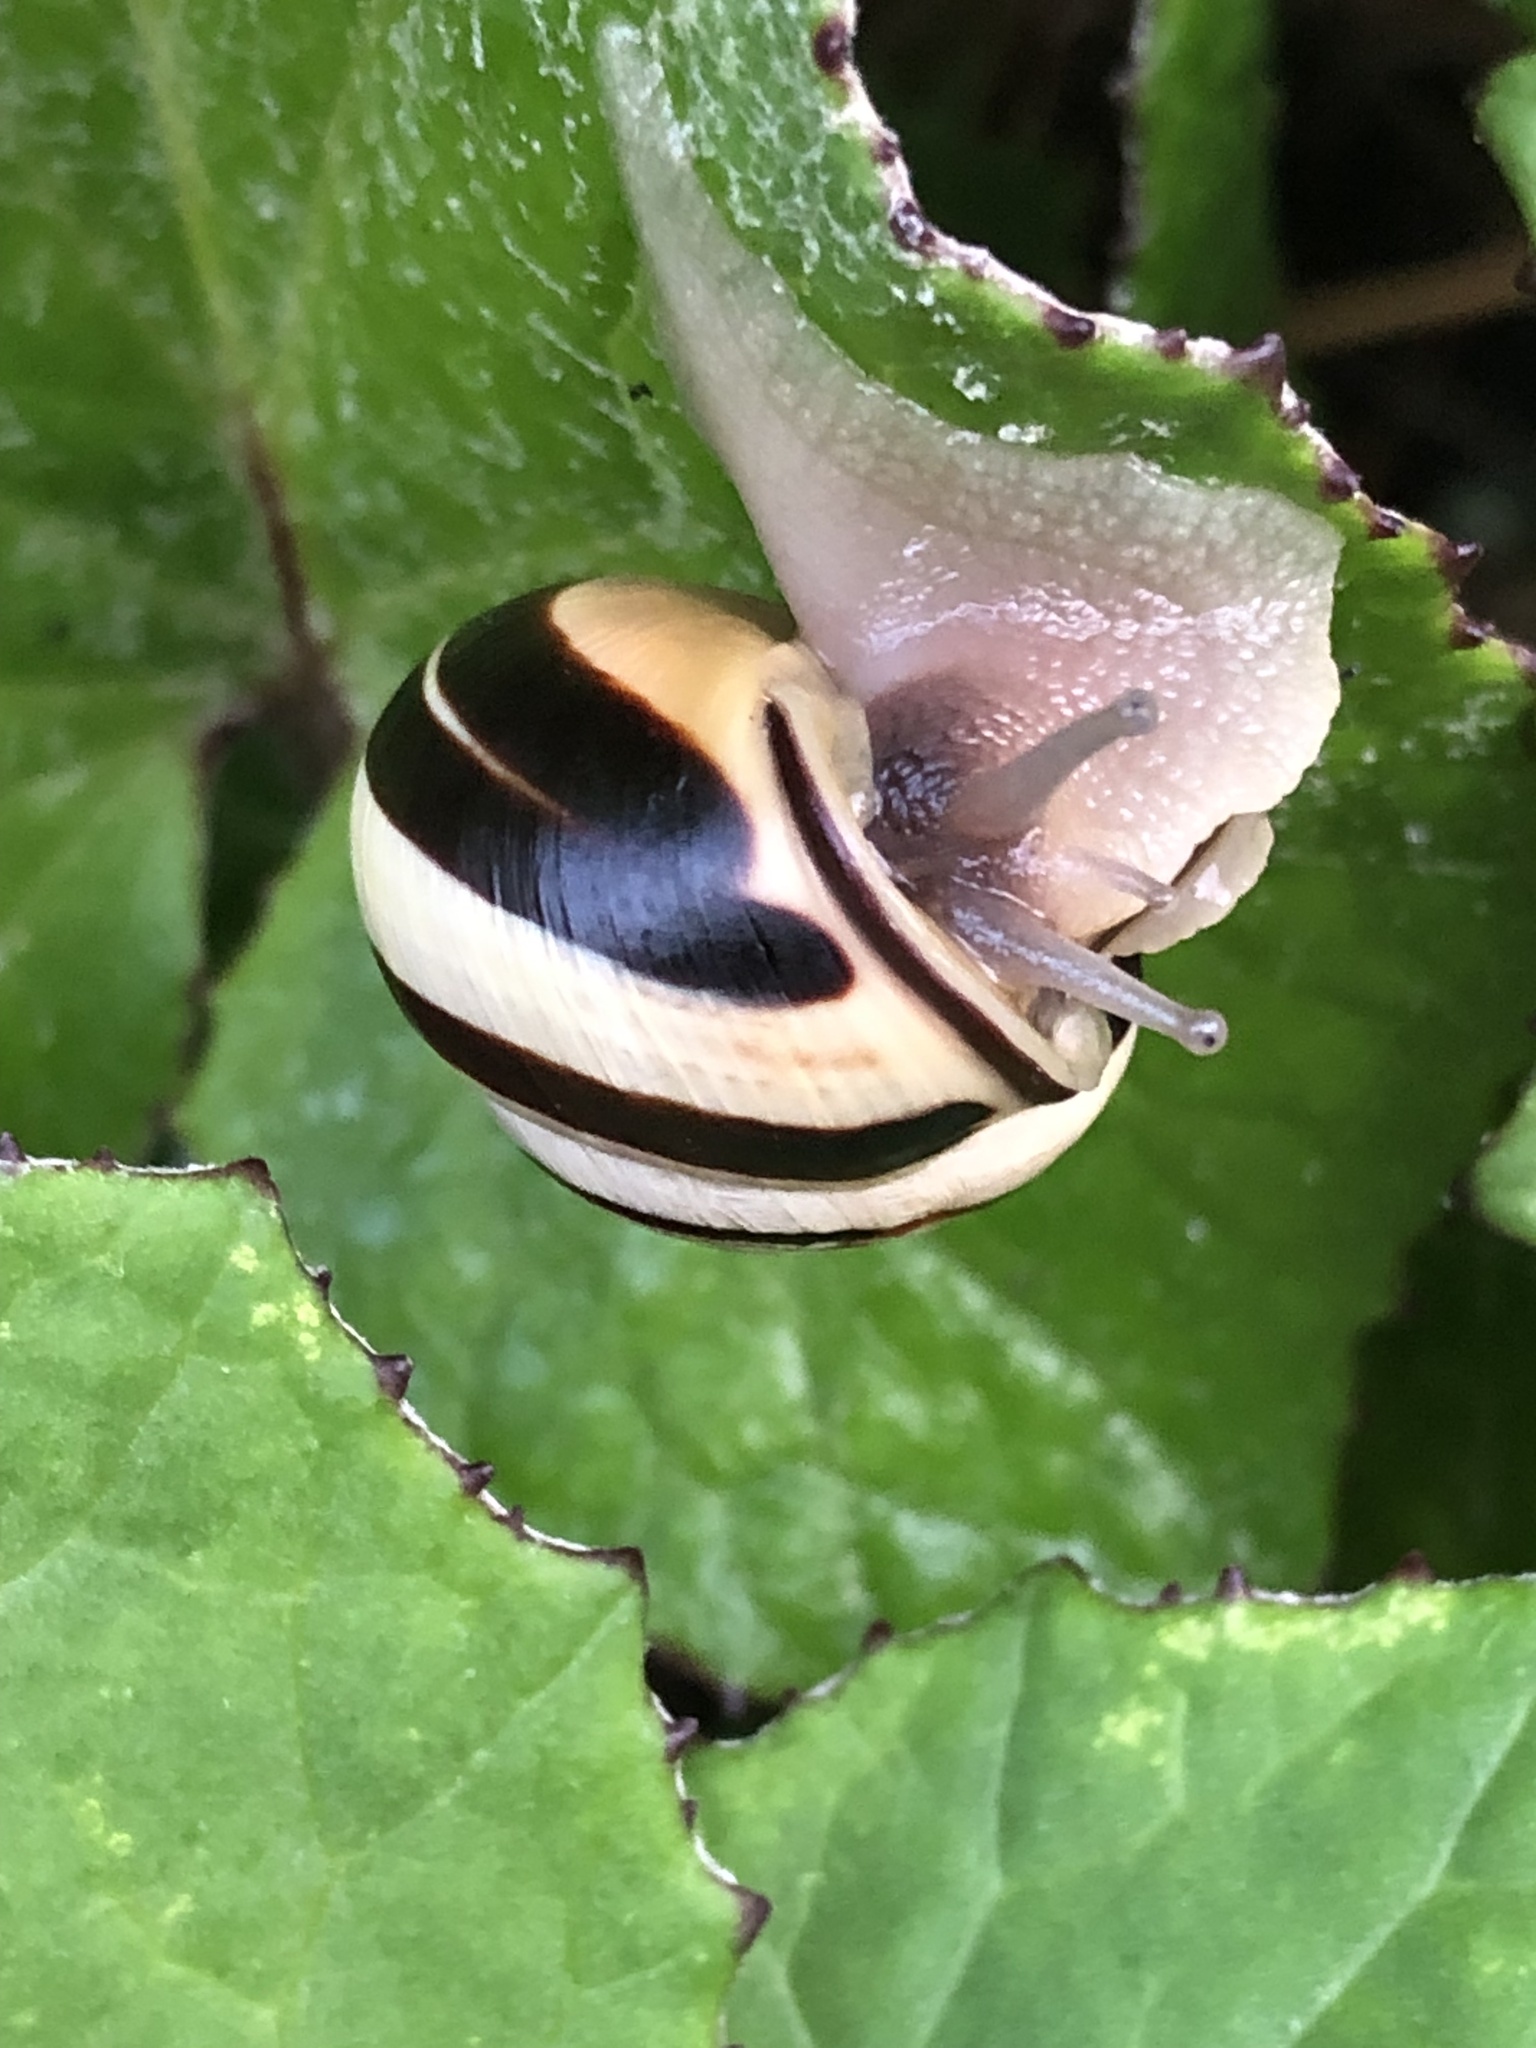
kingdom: Animalia
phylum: Mollusca
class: Gastropoda
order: Stylommatophora
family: Helicidae
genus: Cepaea
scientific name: Cepaea nemoralis
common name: Grovesnail
